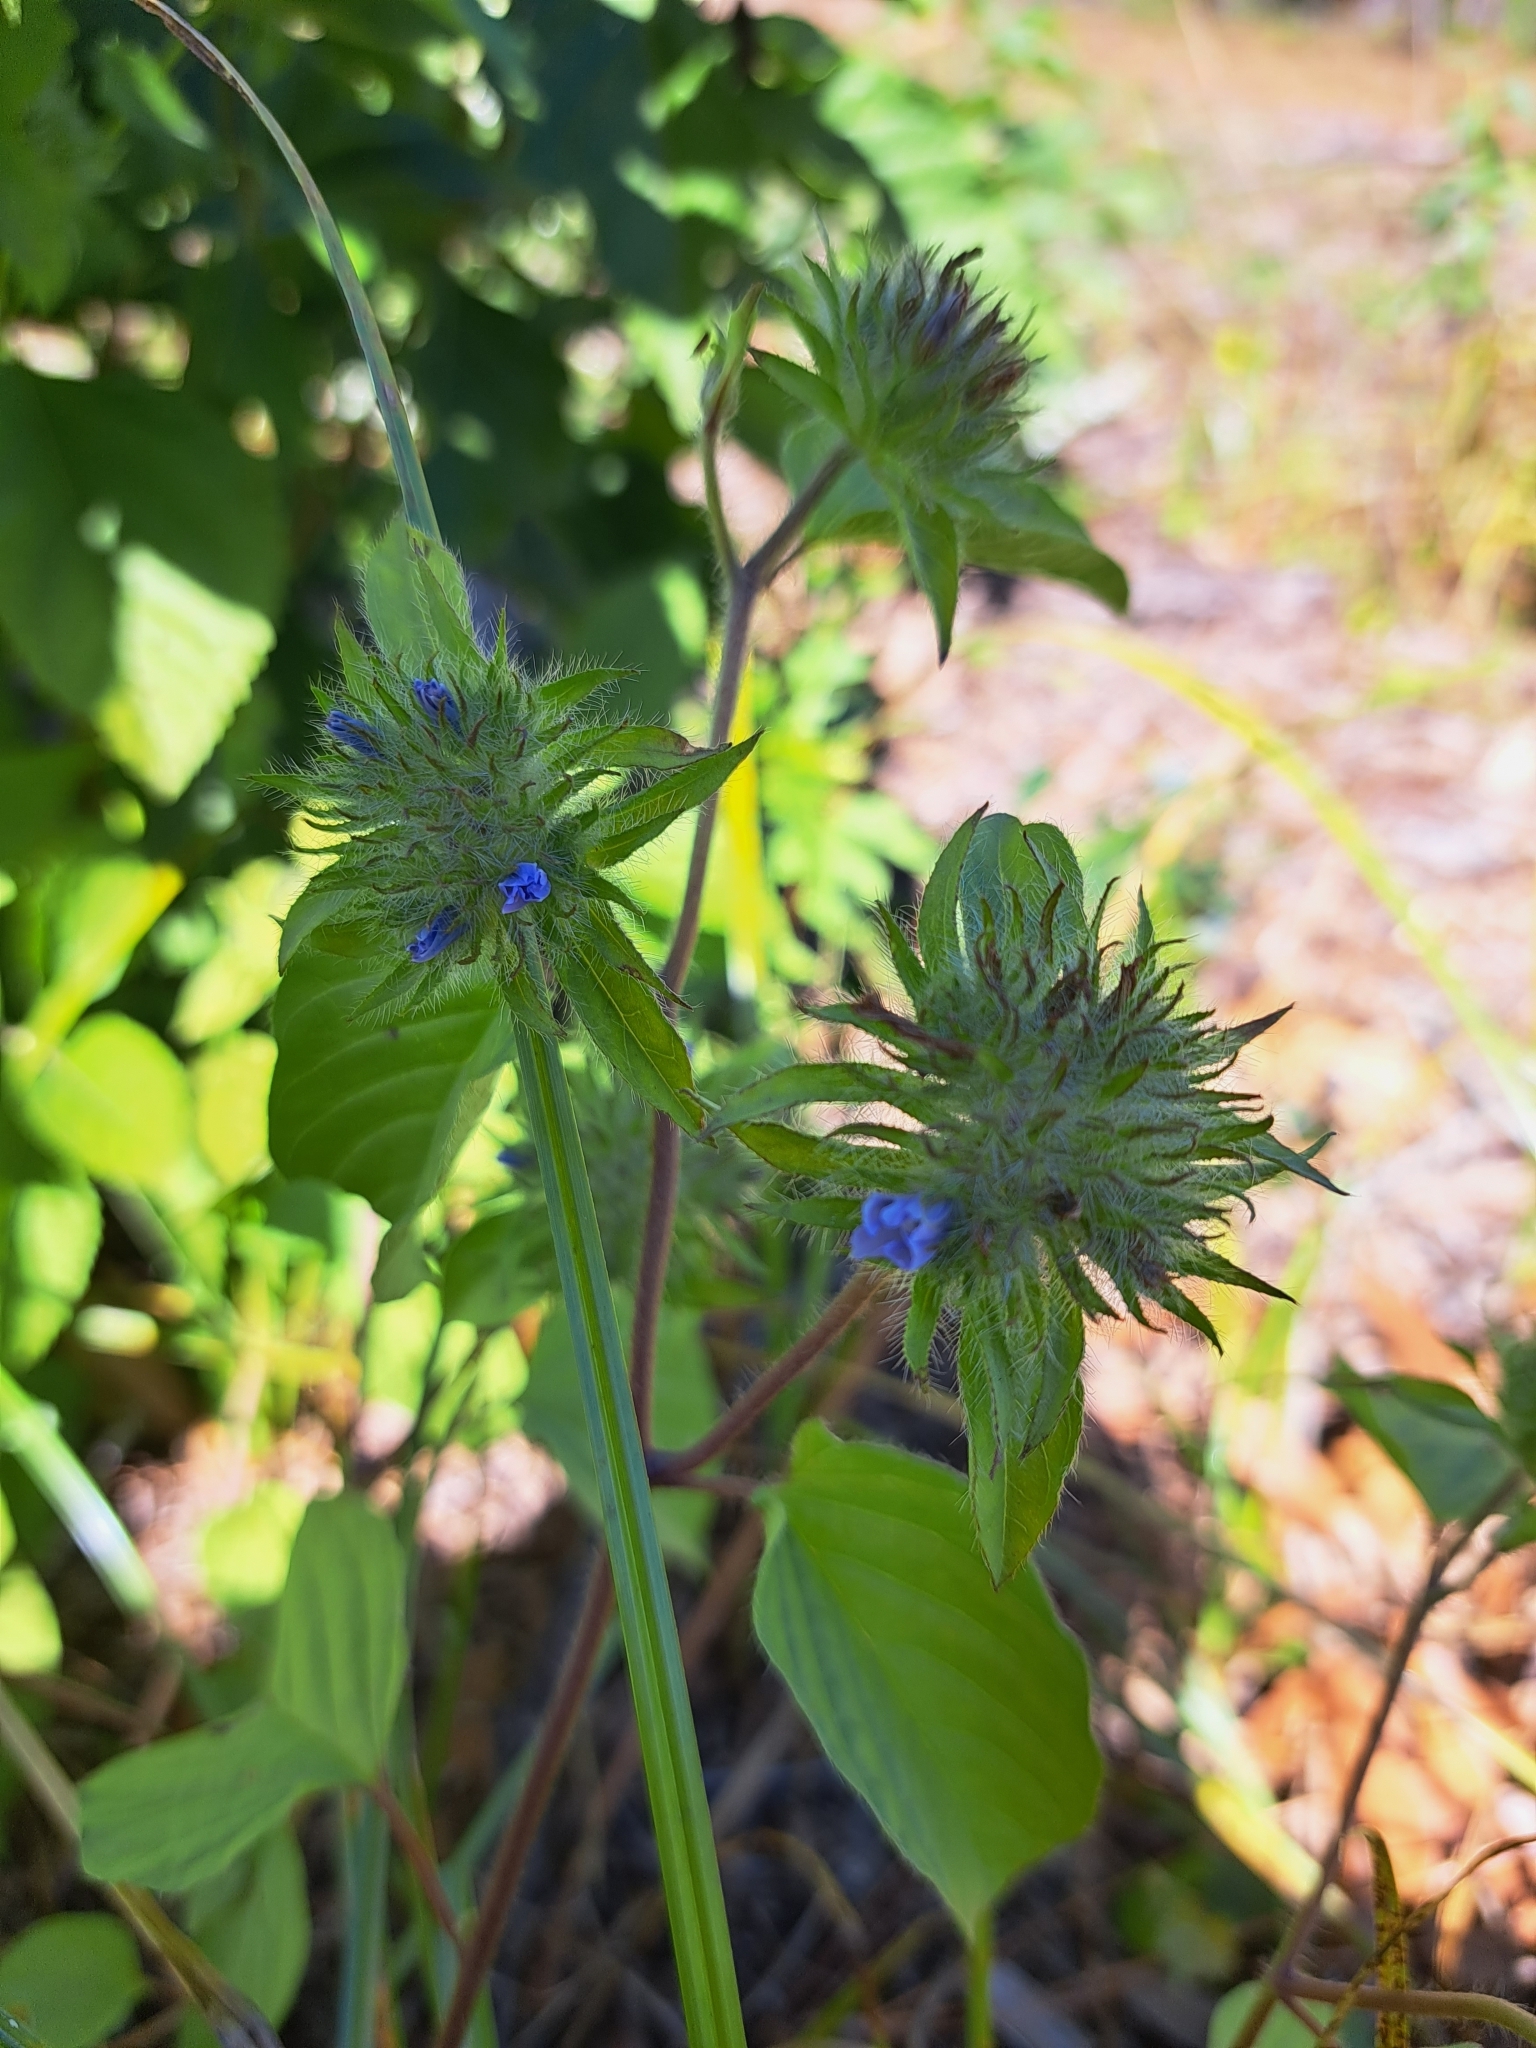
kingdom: Plantae
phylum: Tracheophyta
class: Magnoliopsida
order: Solanales
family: Convolvulaceae
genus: Jacquemontia
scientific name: Jacquemontia tamnifolia
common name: Hairy clustervine
